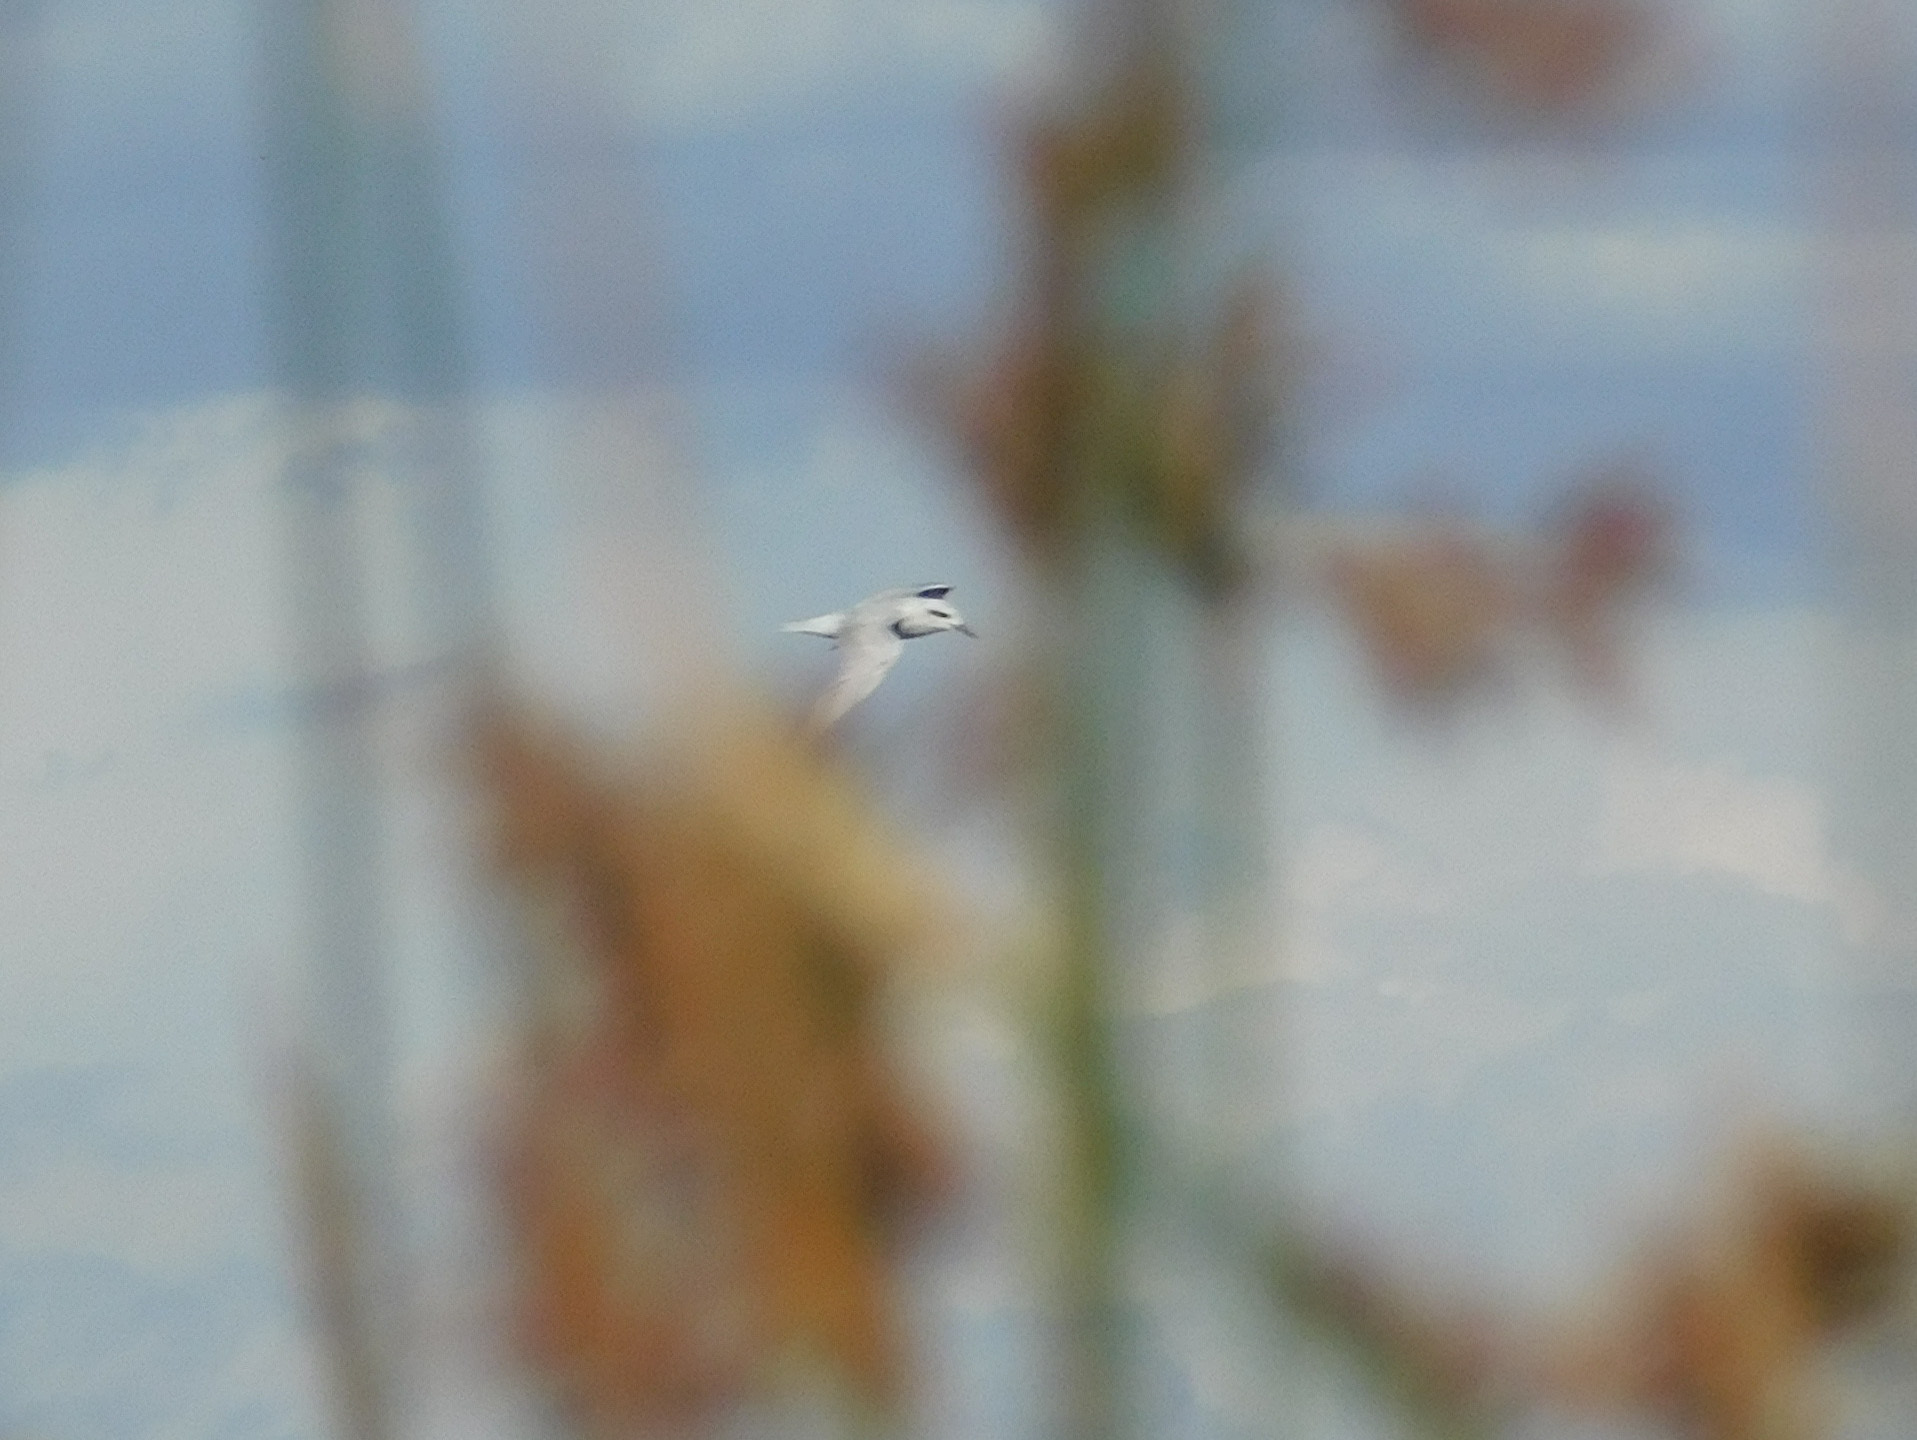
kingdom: Animalia
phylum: Chordata
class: Aves
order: Charadriiformes
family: Laridae
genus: Sterna
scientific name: Sterna trudeaui
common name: Snowy-crowned tern
